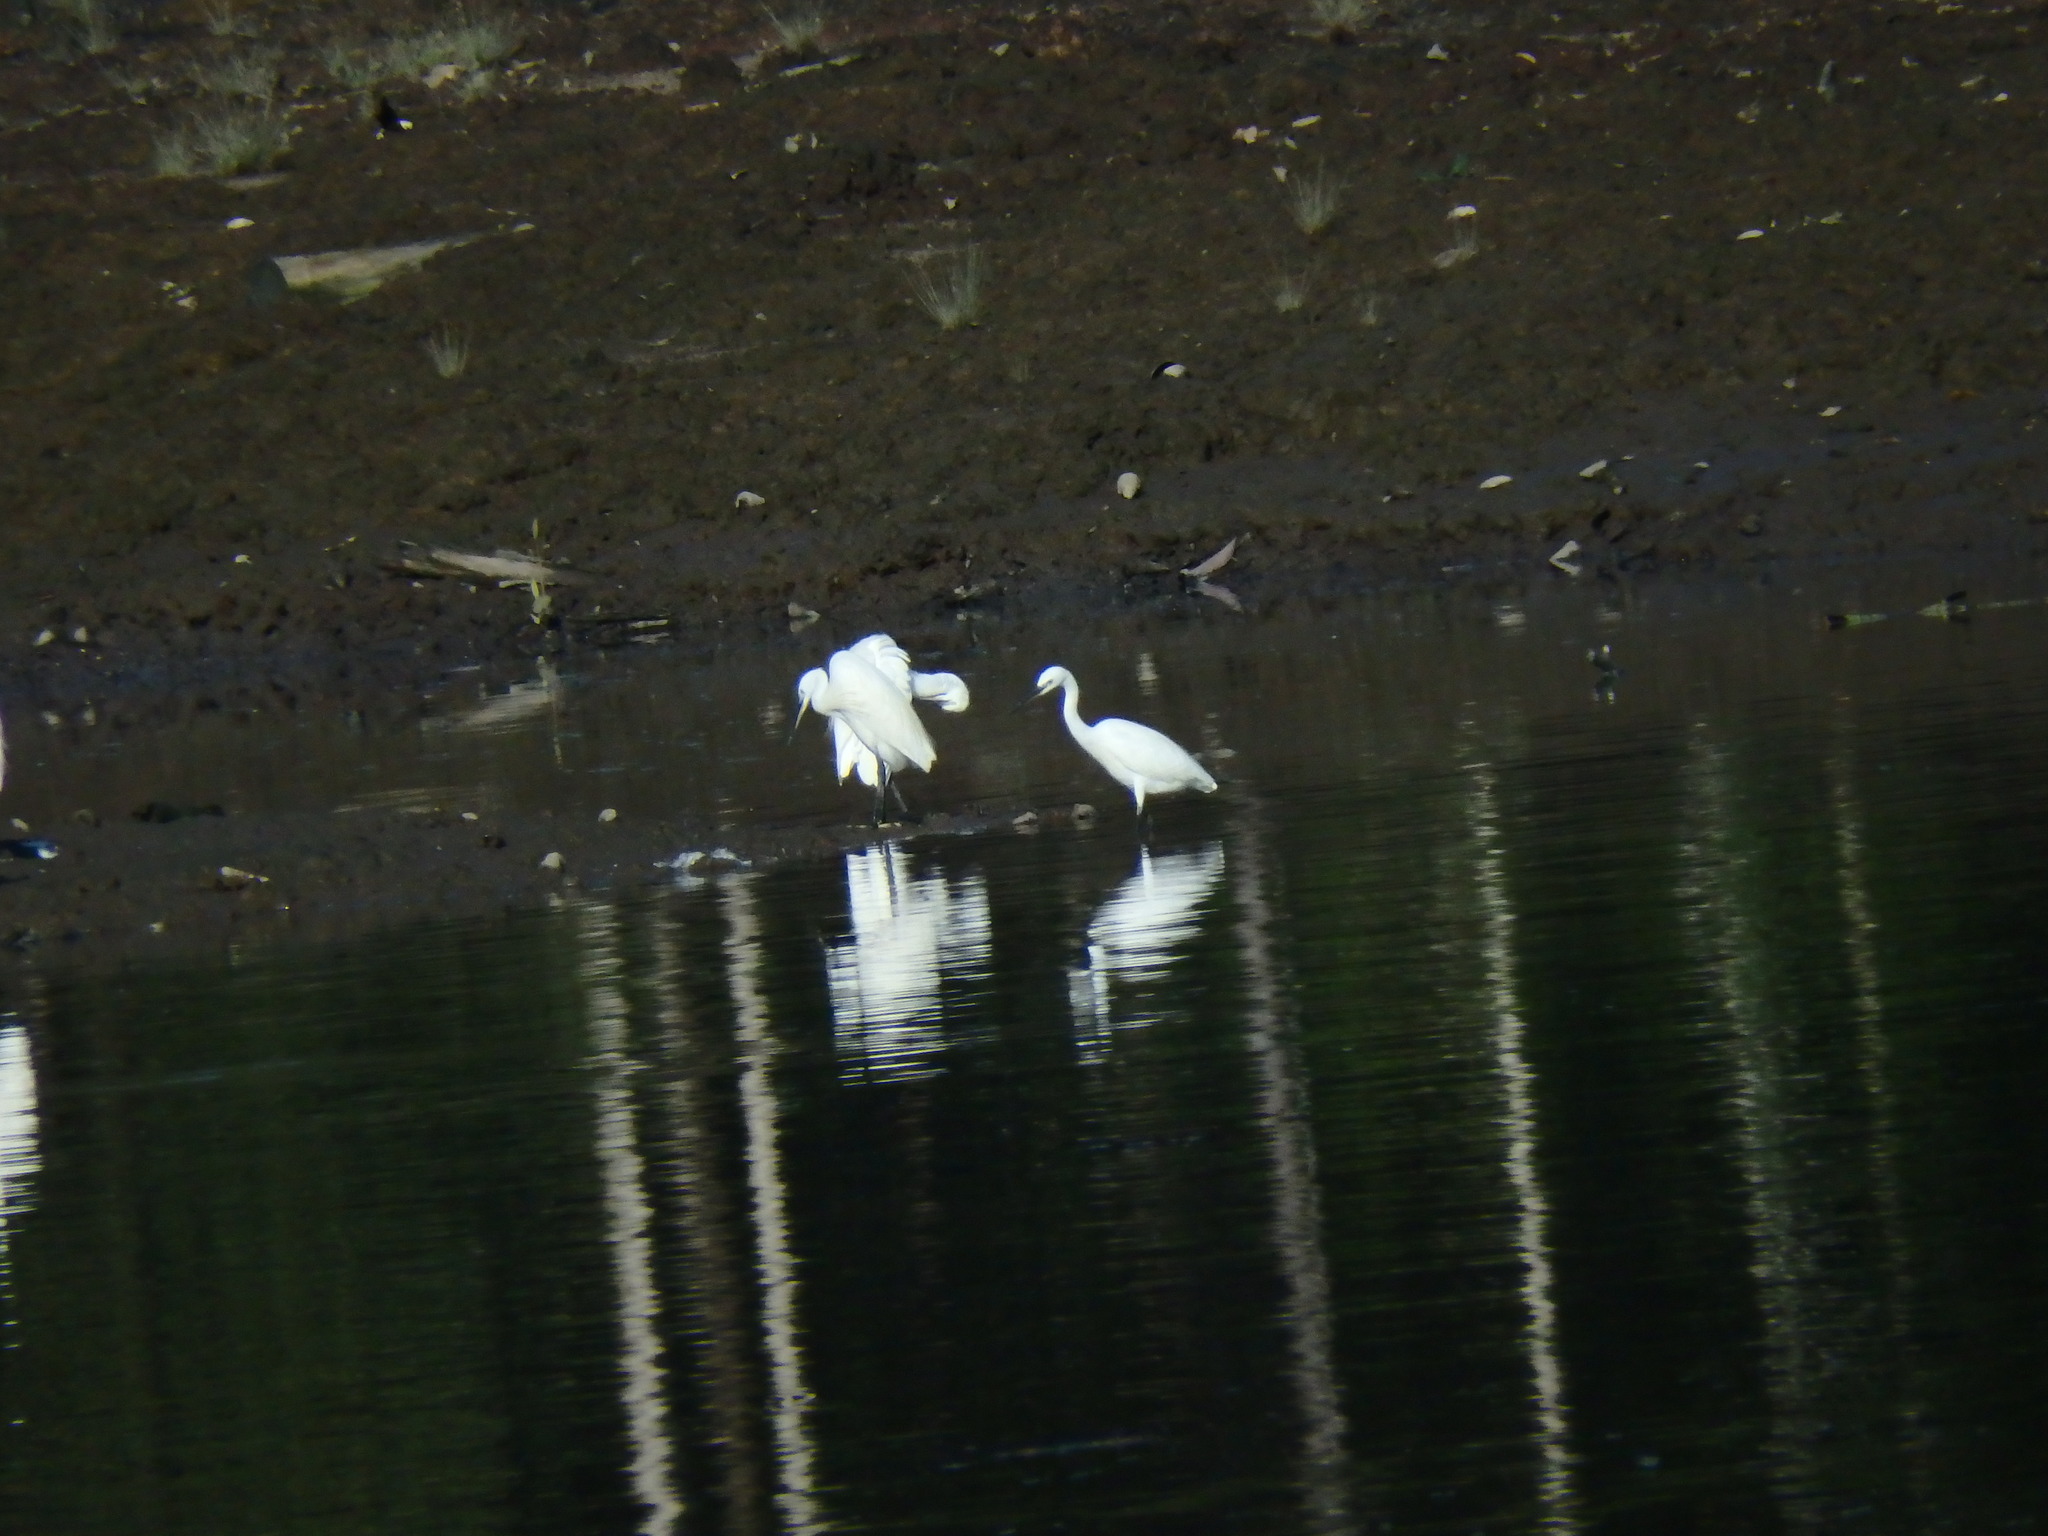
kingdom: Animalia
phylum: Chordata
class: Aves
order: Pelecaniformes
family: Ardeidae
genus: Egretta
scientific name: Egretta garzetta
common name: Little egret
